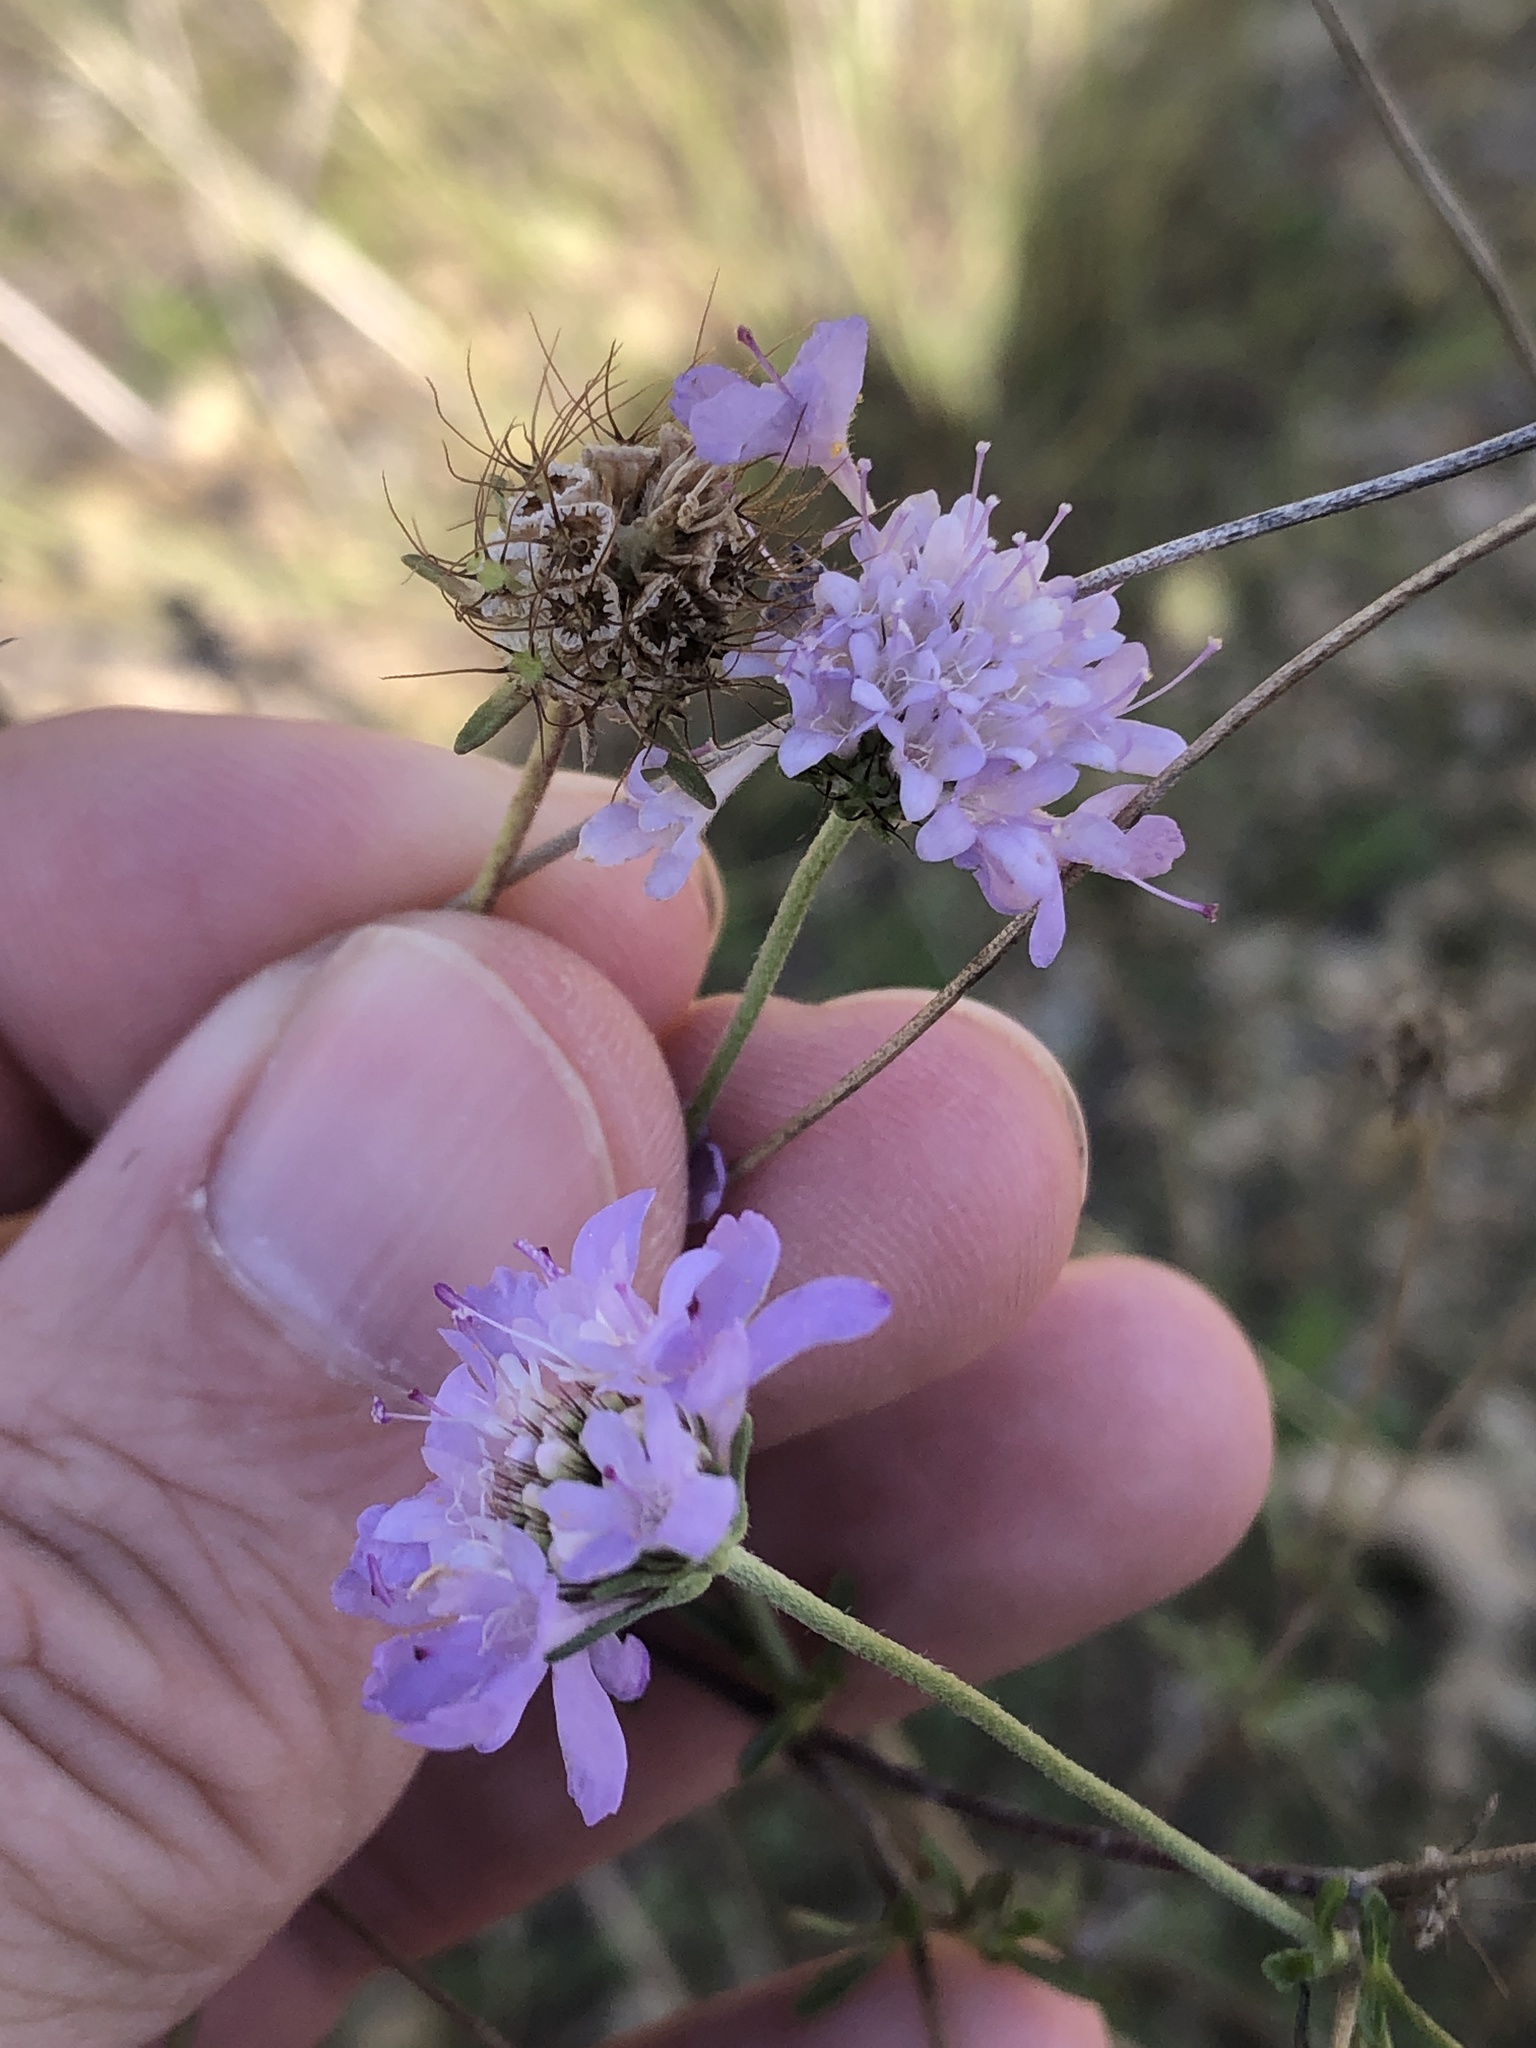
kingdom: Plantae
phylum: Tracheophyta
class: Magnoliopsida
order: Dipsacales
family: Caprifoliaceae
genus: Sixalix
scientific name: Sixalix atropurpurea
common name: Sweet scabious
